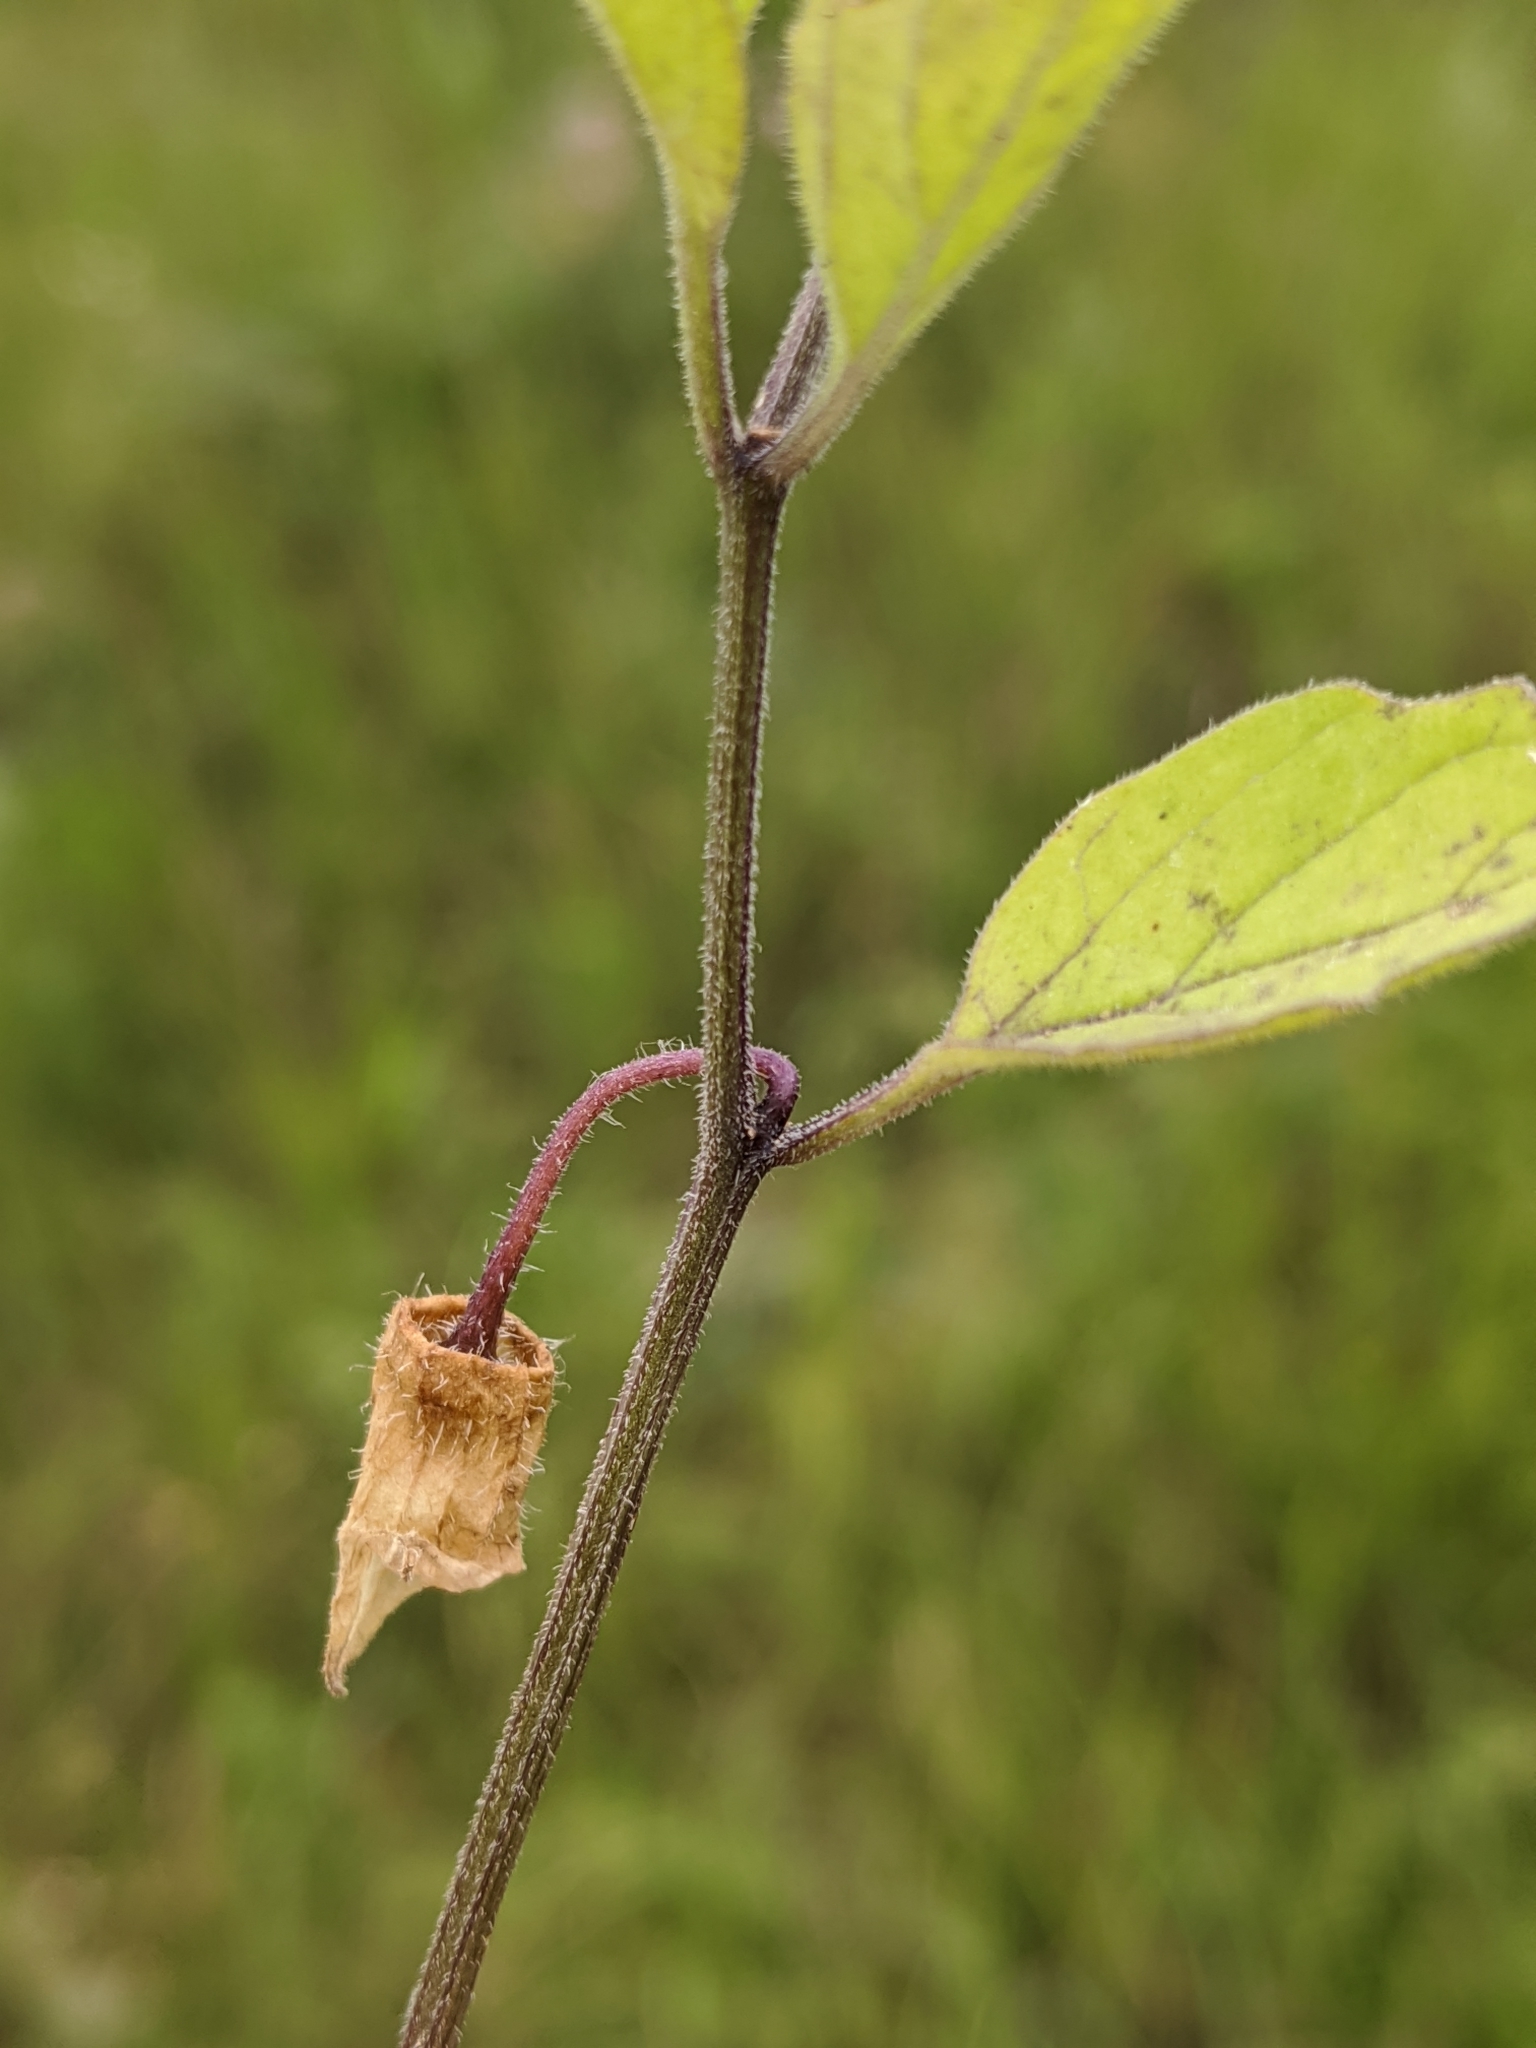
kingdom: Plantae
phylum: Tracheophyta
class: Magnoliopsida
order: Solanales
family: Solanaceae
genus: Physalis
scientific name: Physalis virginiana
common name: Virginia ground-cherry
